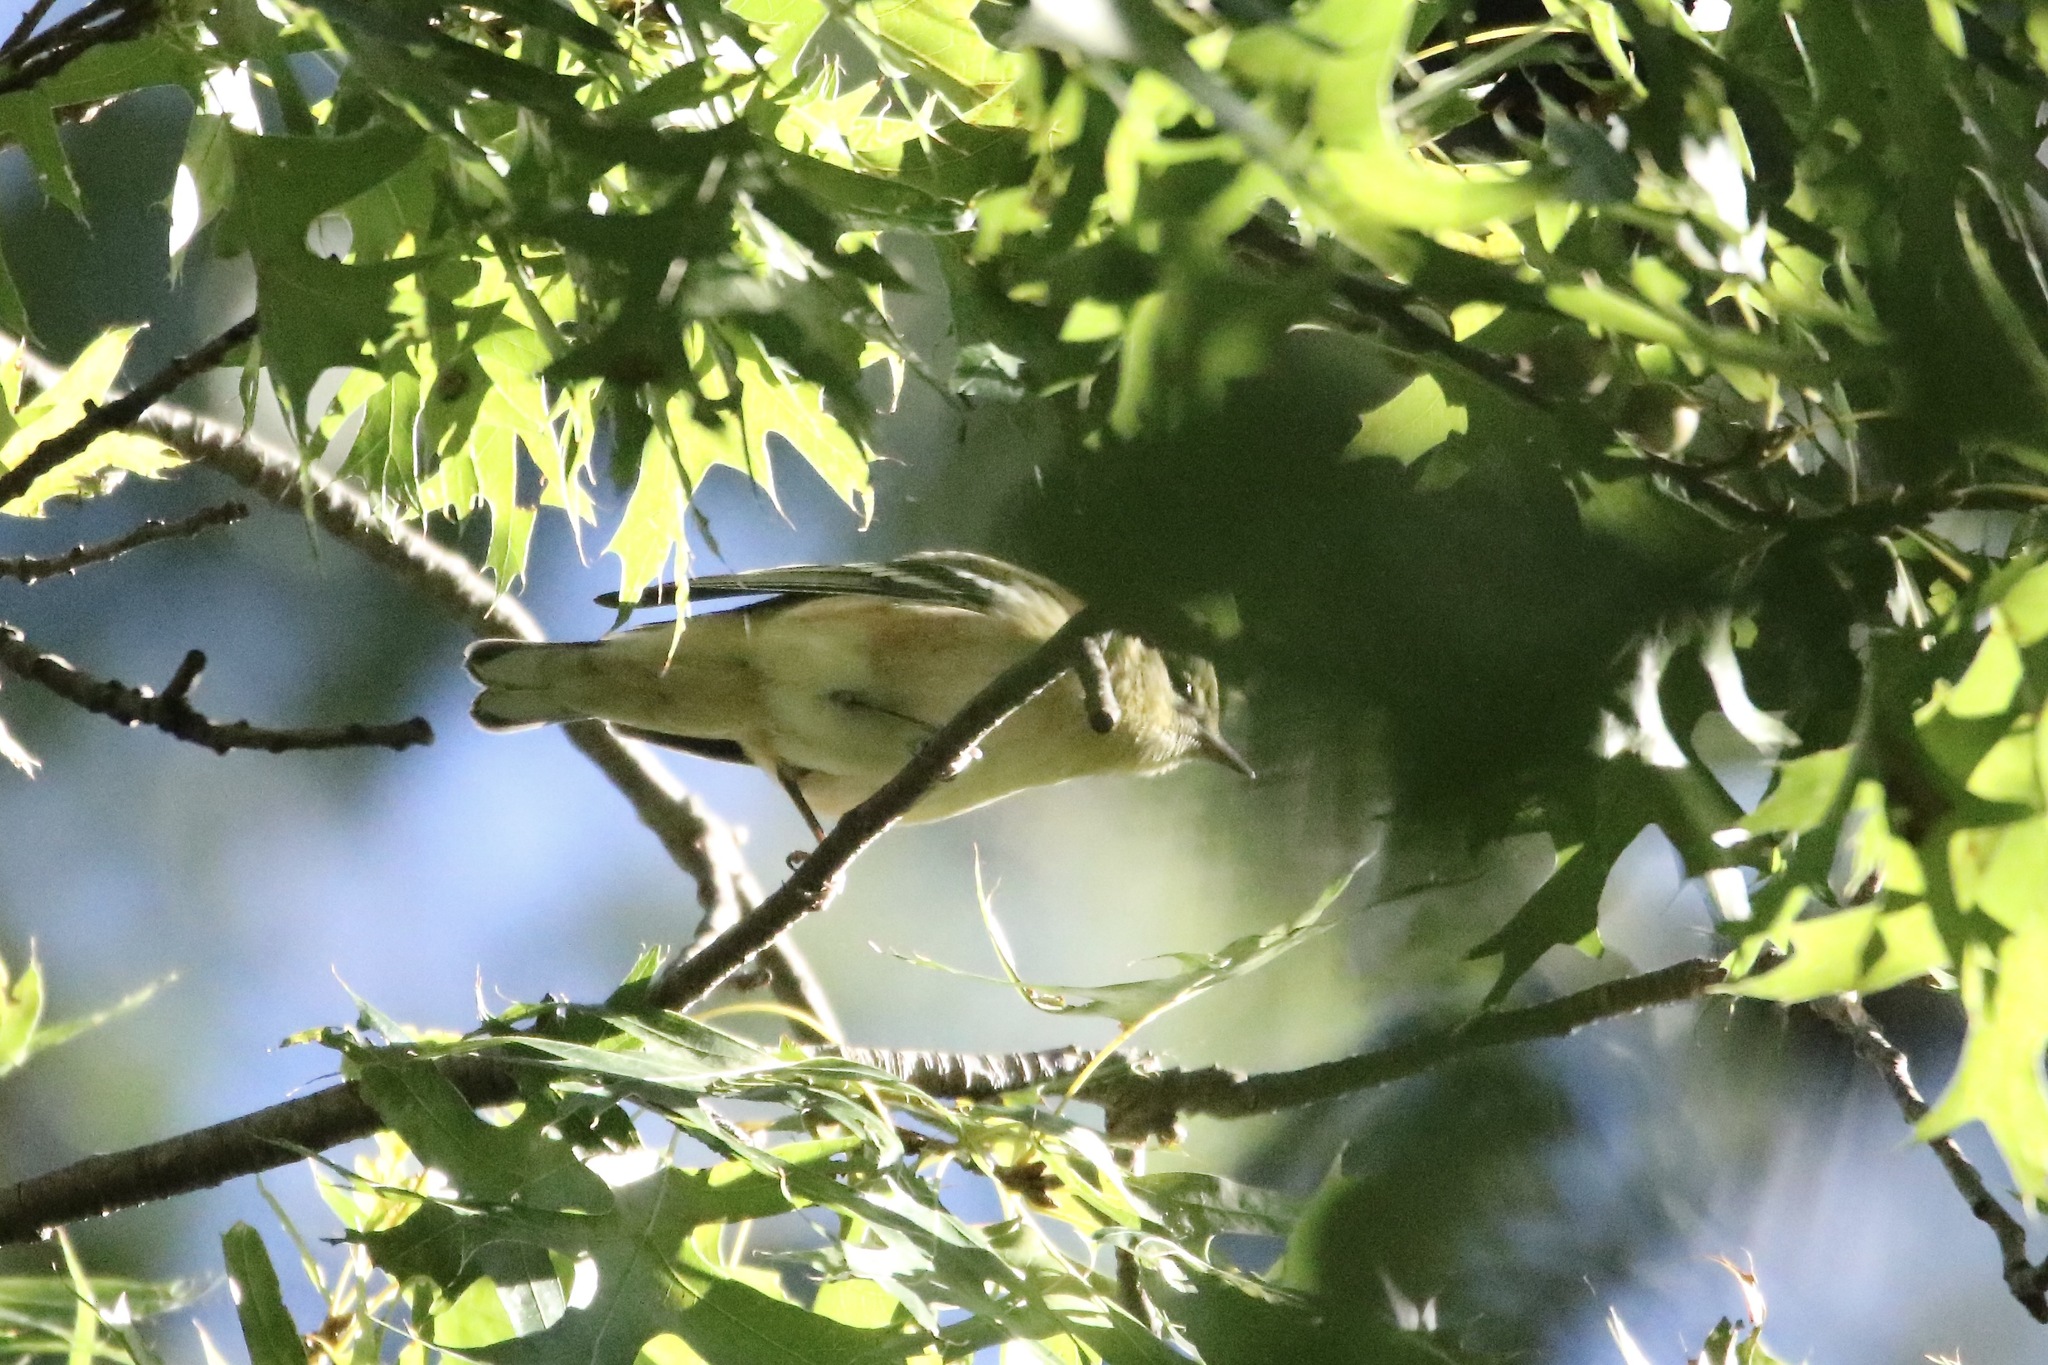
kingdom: Animalia
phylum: Chordata
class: Aves
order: Passeriformes
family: Parulidae
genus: Setophaga
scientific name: Setophaga castanea
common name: Bay-breasted warbler
